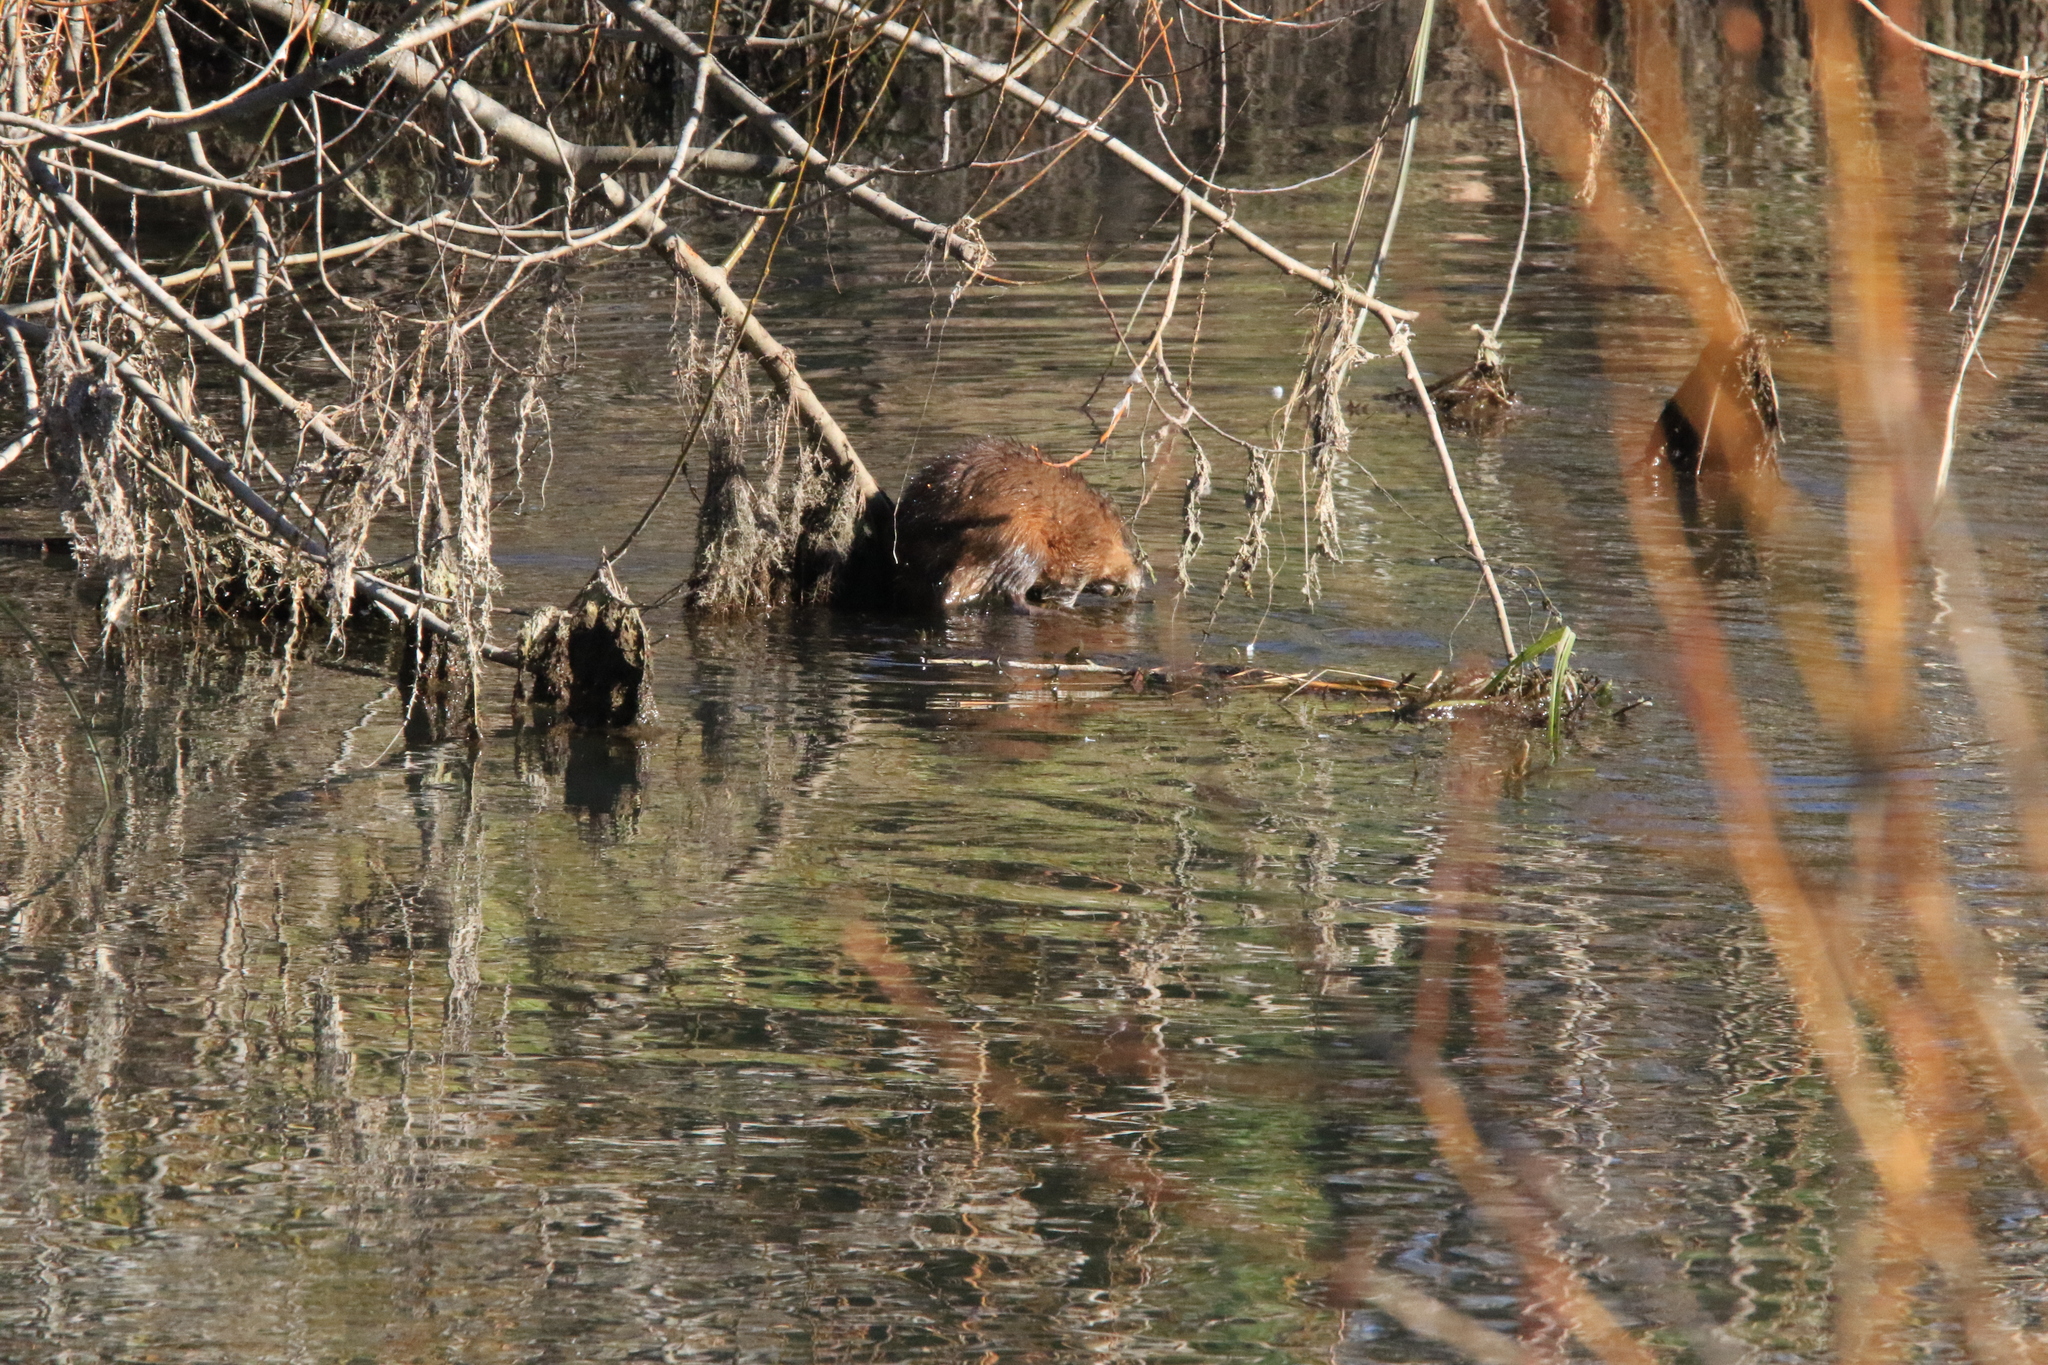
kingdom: Animalia
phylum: Chordata
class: Mammalia
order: Rodentia
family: Cricetidae
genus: Ondatra
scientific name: Ondatra zibethicus
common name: Muskrat
